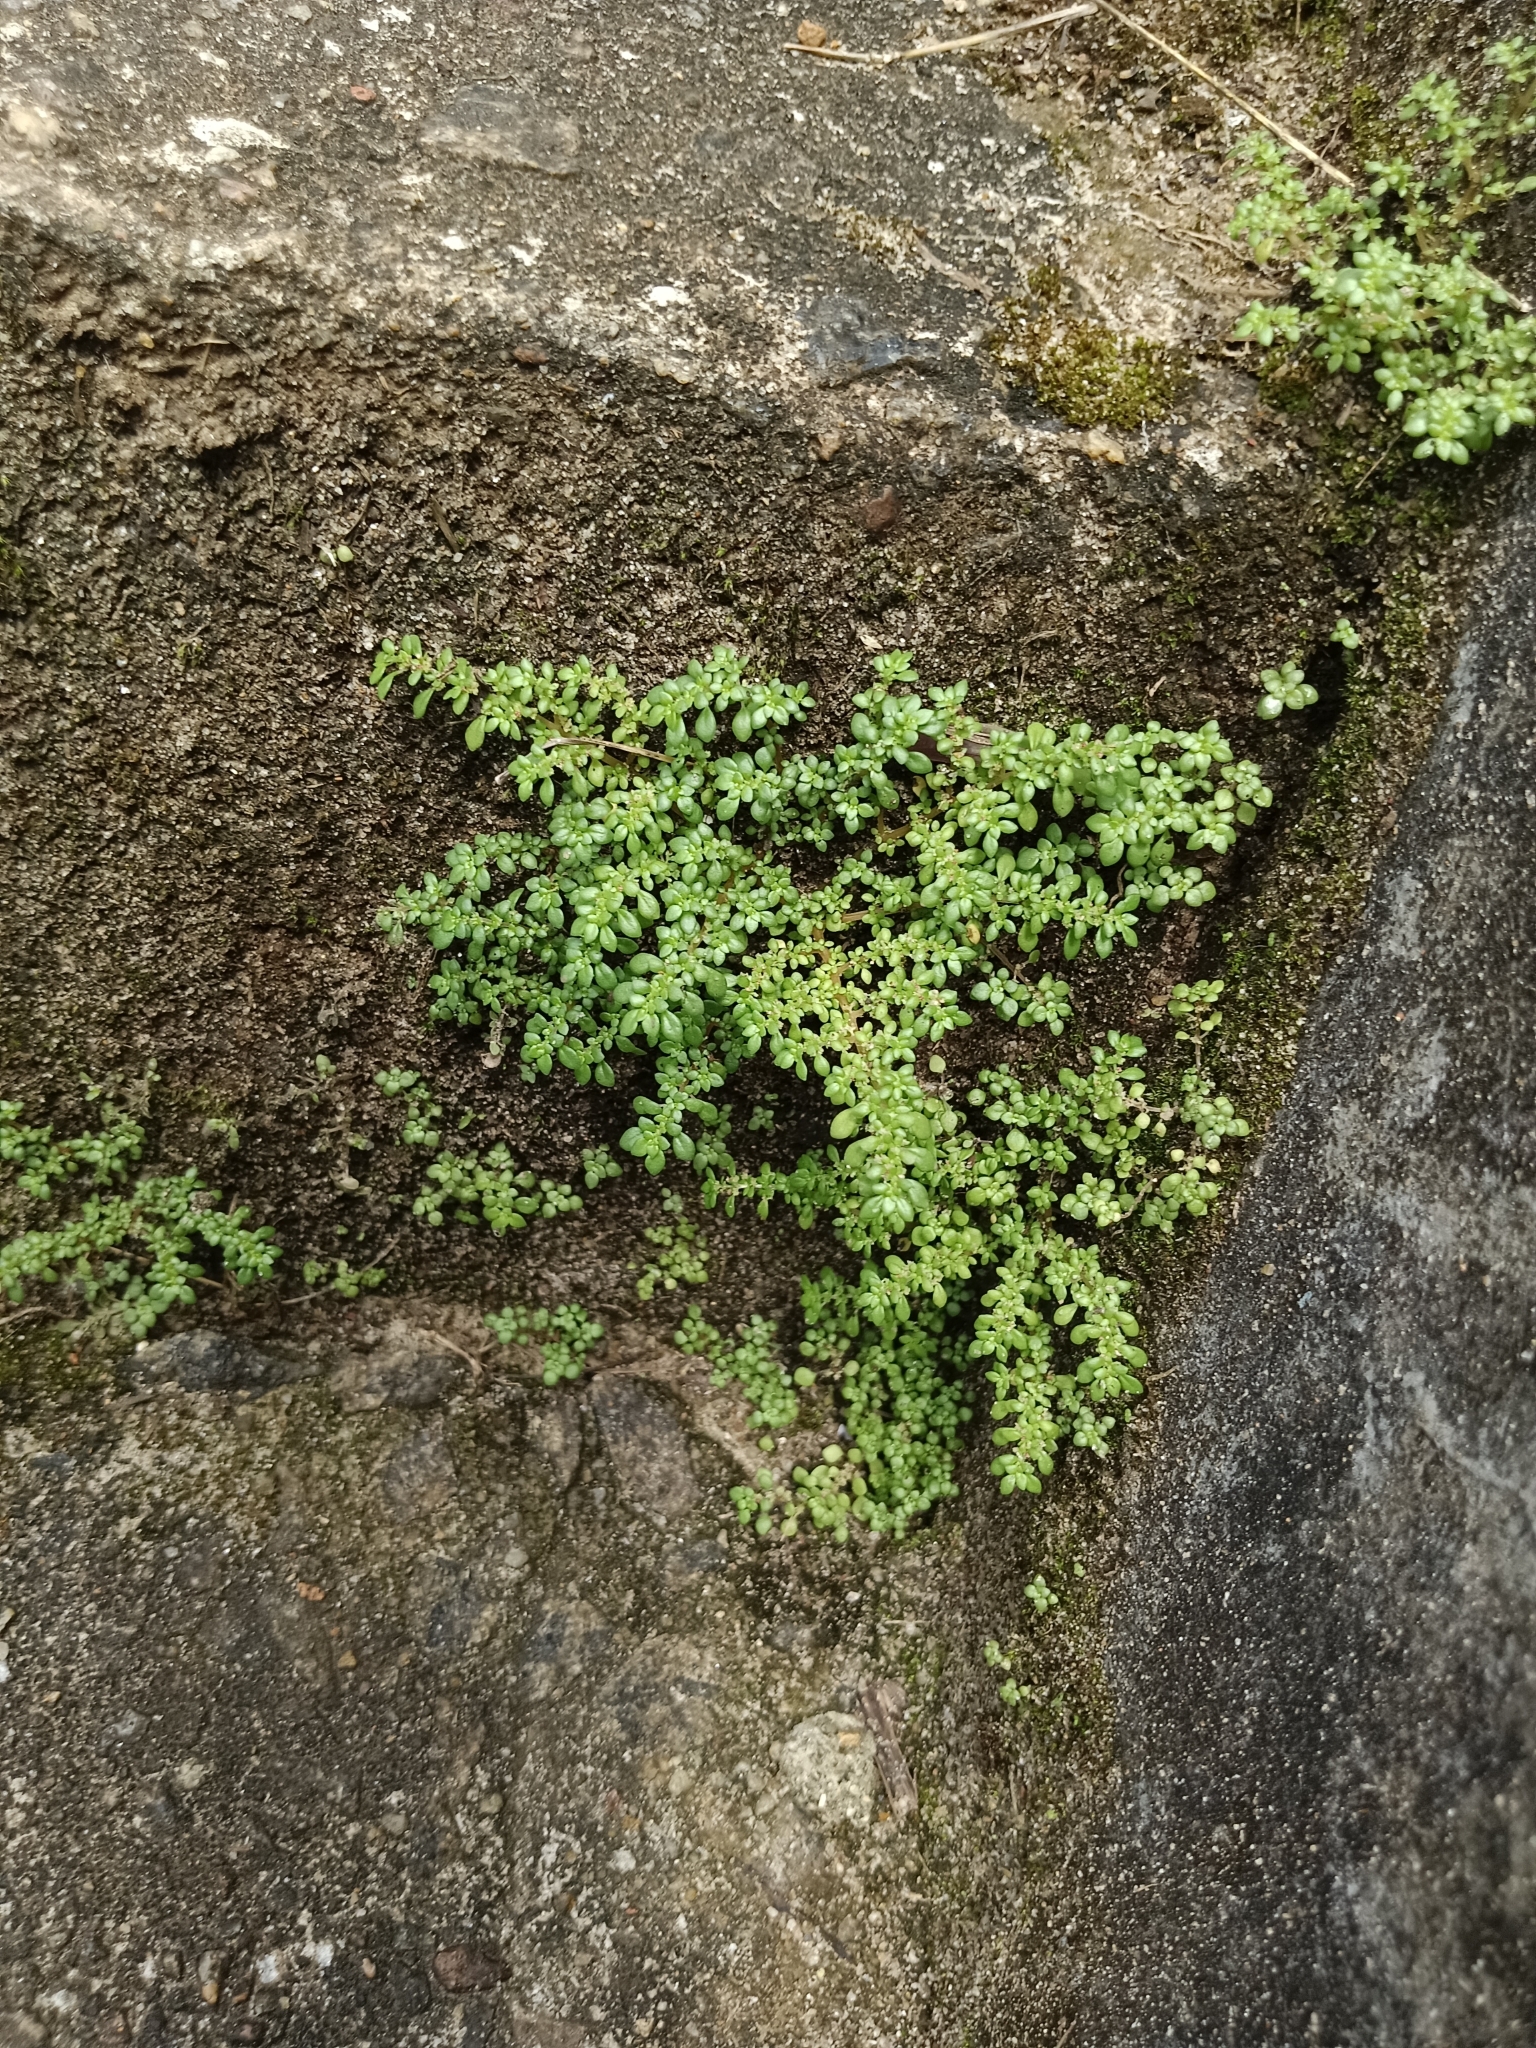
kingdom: Plantae
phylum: Tracheophyta
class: Magnoliopsida
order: Rosales
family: Urticaceae
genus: Pilea
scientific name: Pilea microphylla
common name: Artillery-plant
